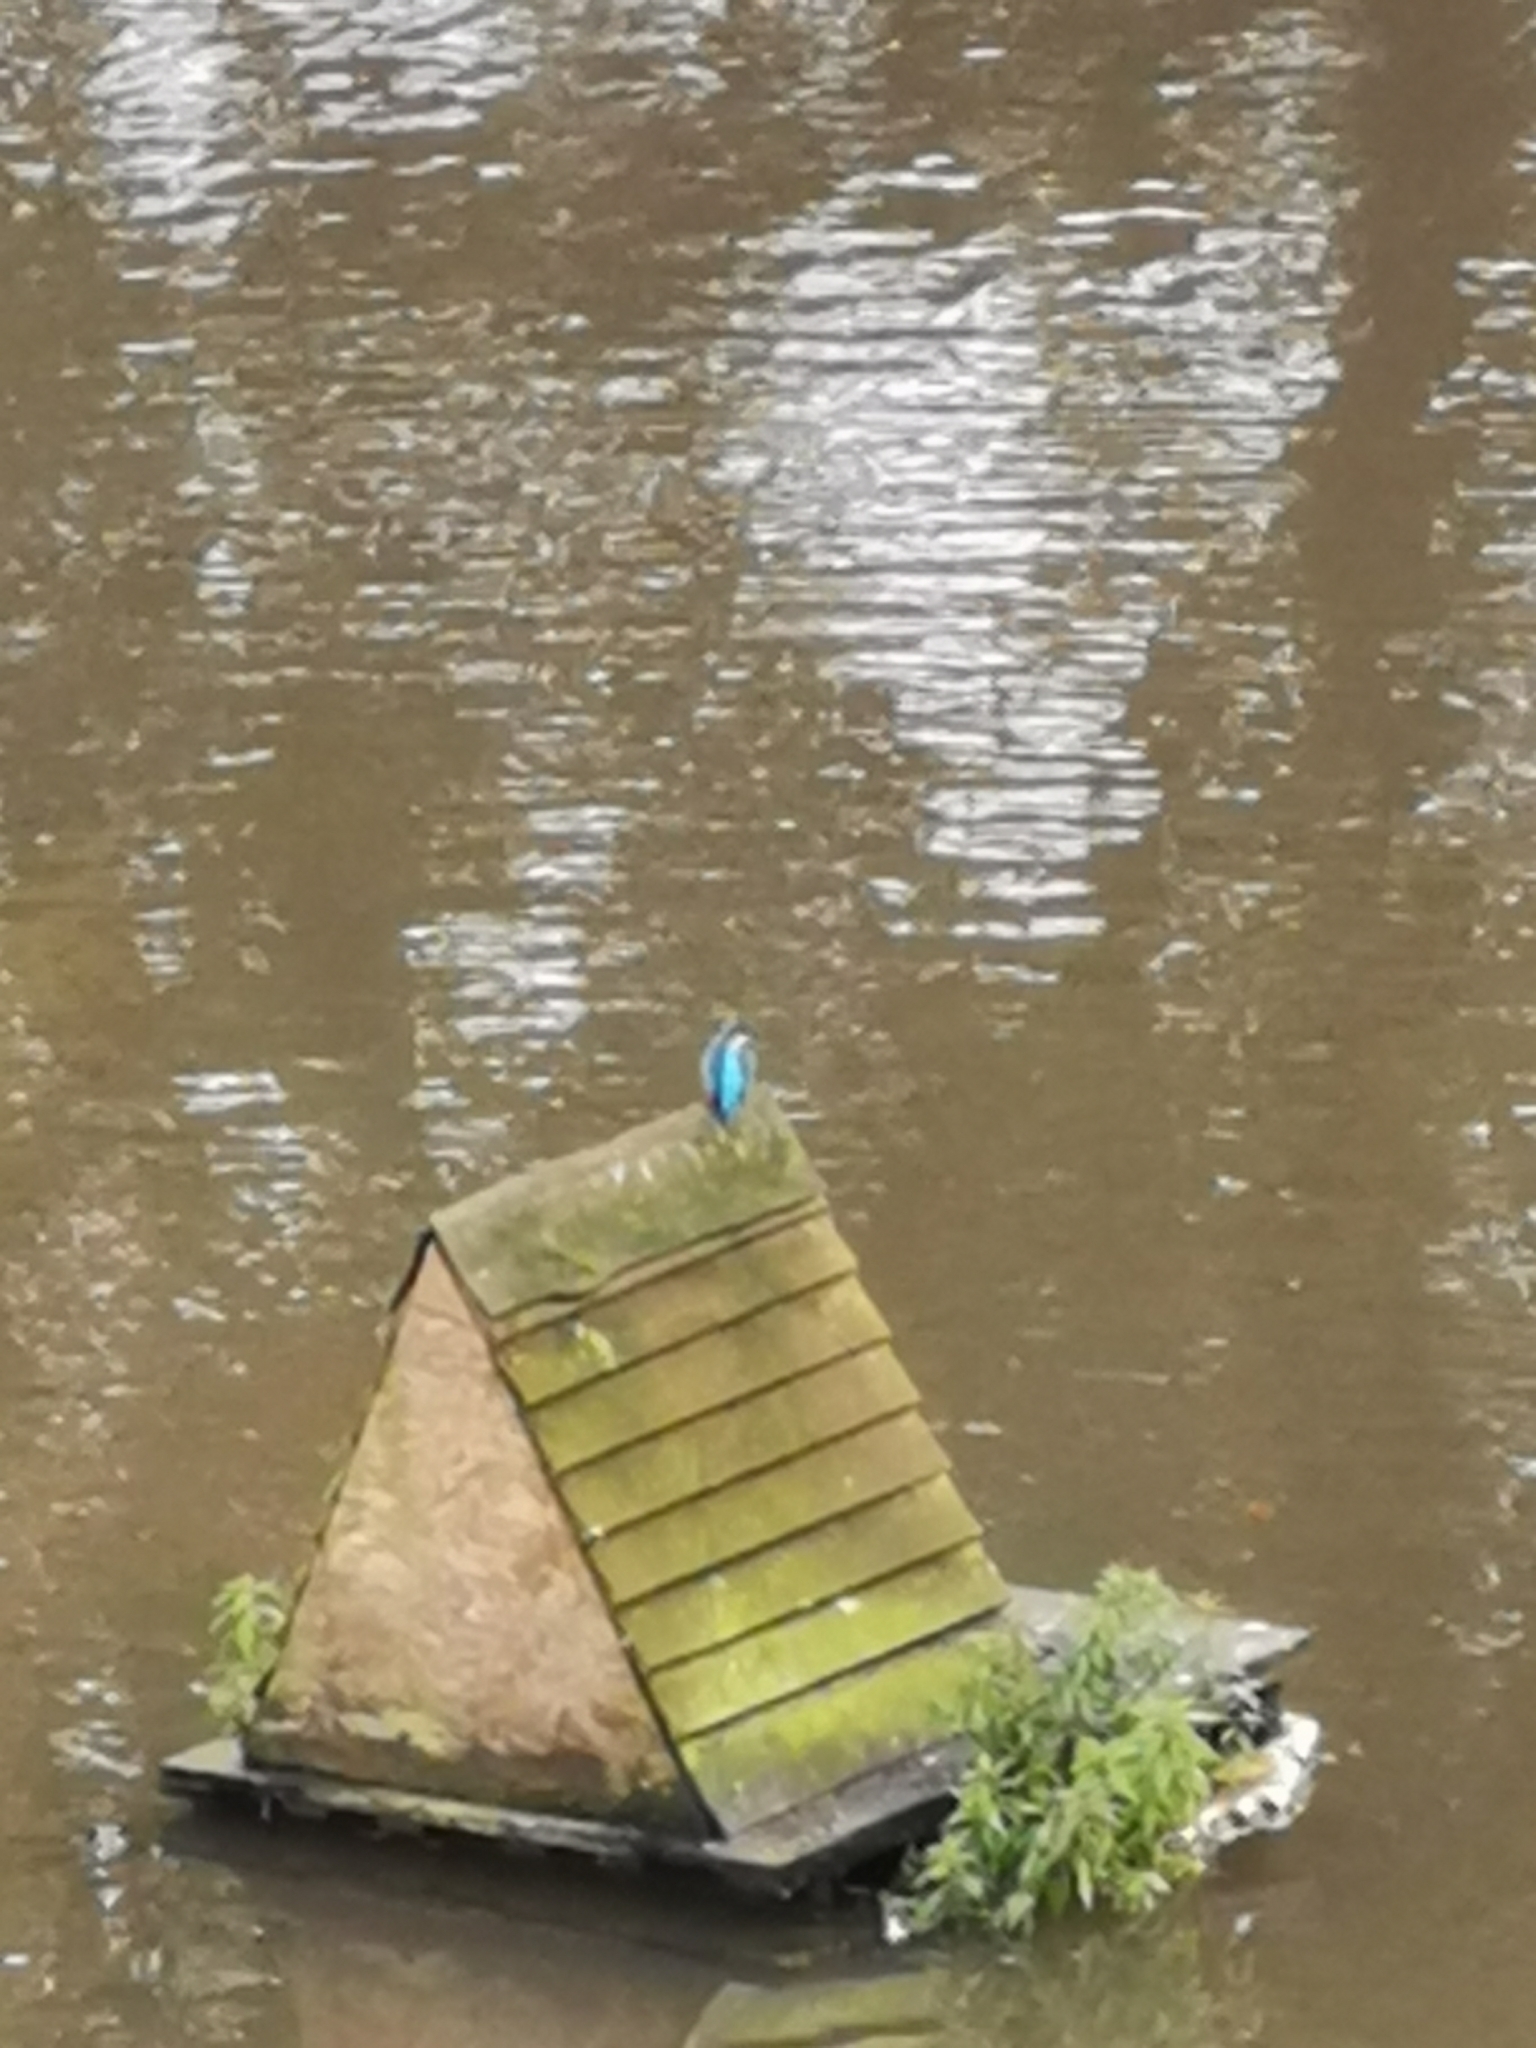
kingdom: Animalia
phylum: Chordata
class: Aves
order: Coraciiformes
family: Alcedinidae
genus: Alcedo
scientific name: Alcedo atthis
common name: Common kingfisher
